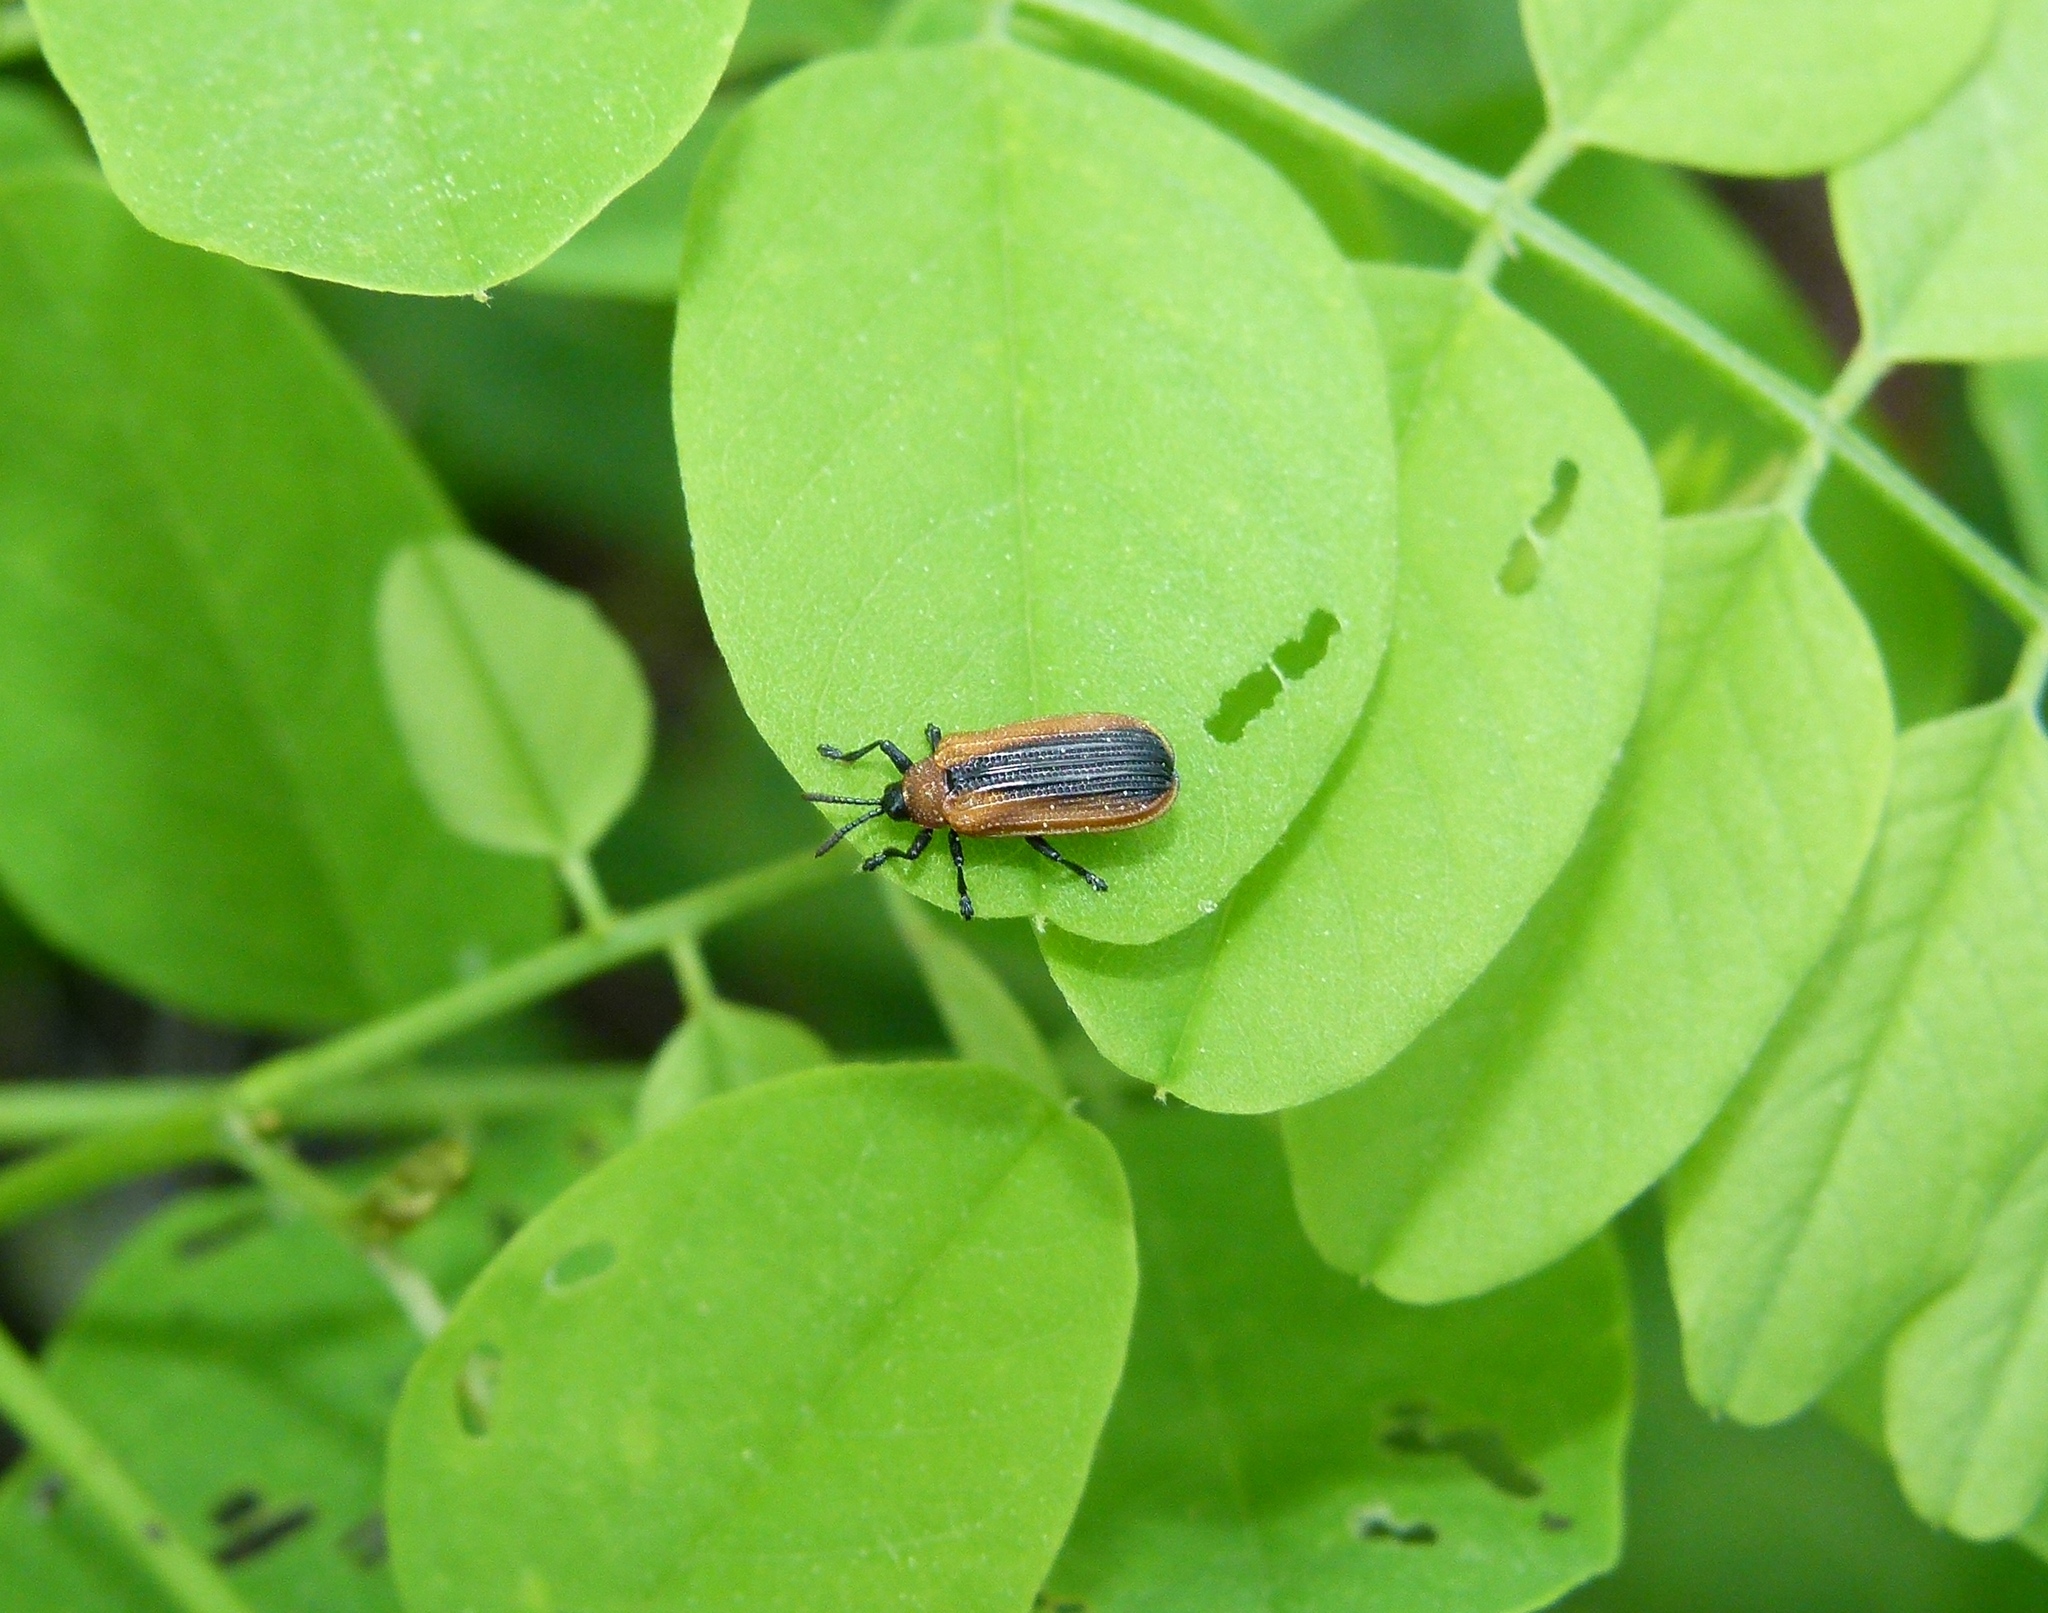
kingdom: Animalia
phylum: Arthropoda
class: Insecta
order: Coleoptera
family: Chrysomelidae
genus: Odontota
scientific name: Odontota dorsalis
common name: Locust leaf-miner beetle
